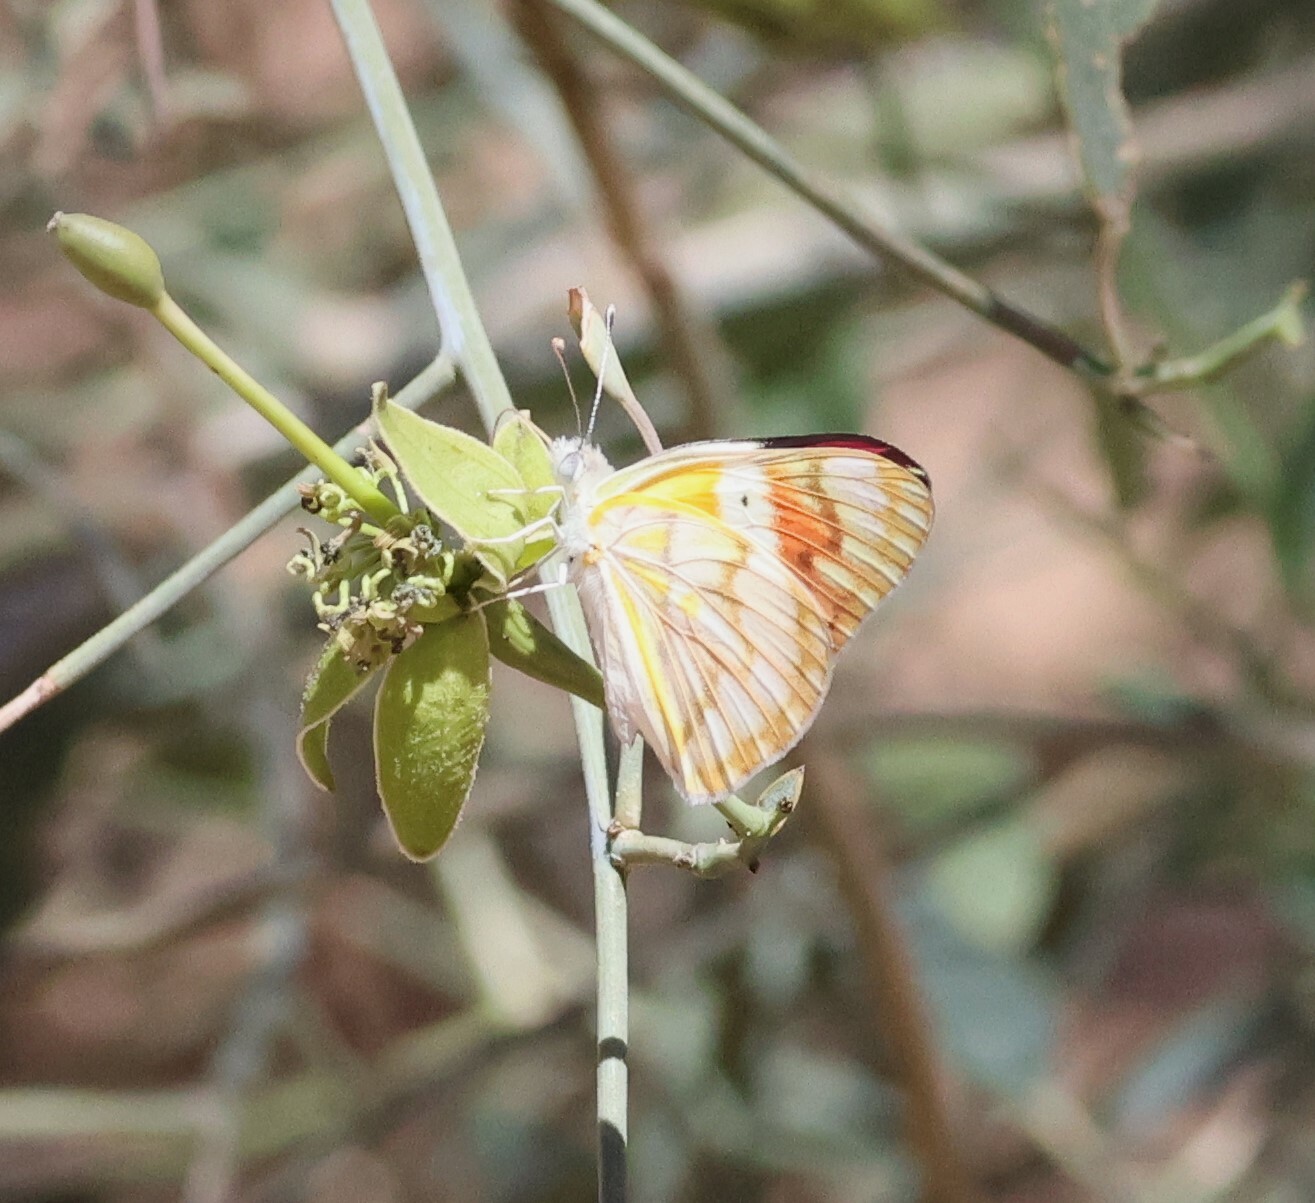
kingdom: Animalia
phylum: Arthropoda
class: Insecta
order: Lepidoptera
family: Pieridae
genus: Colotis
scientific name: Colotis celimene
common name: Lilac tip
